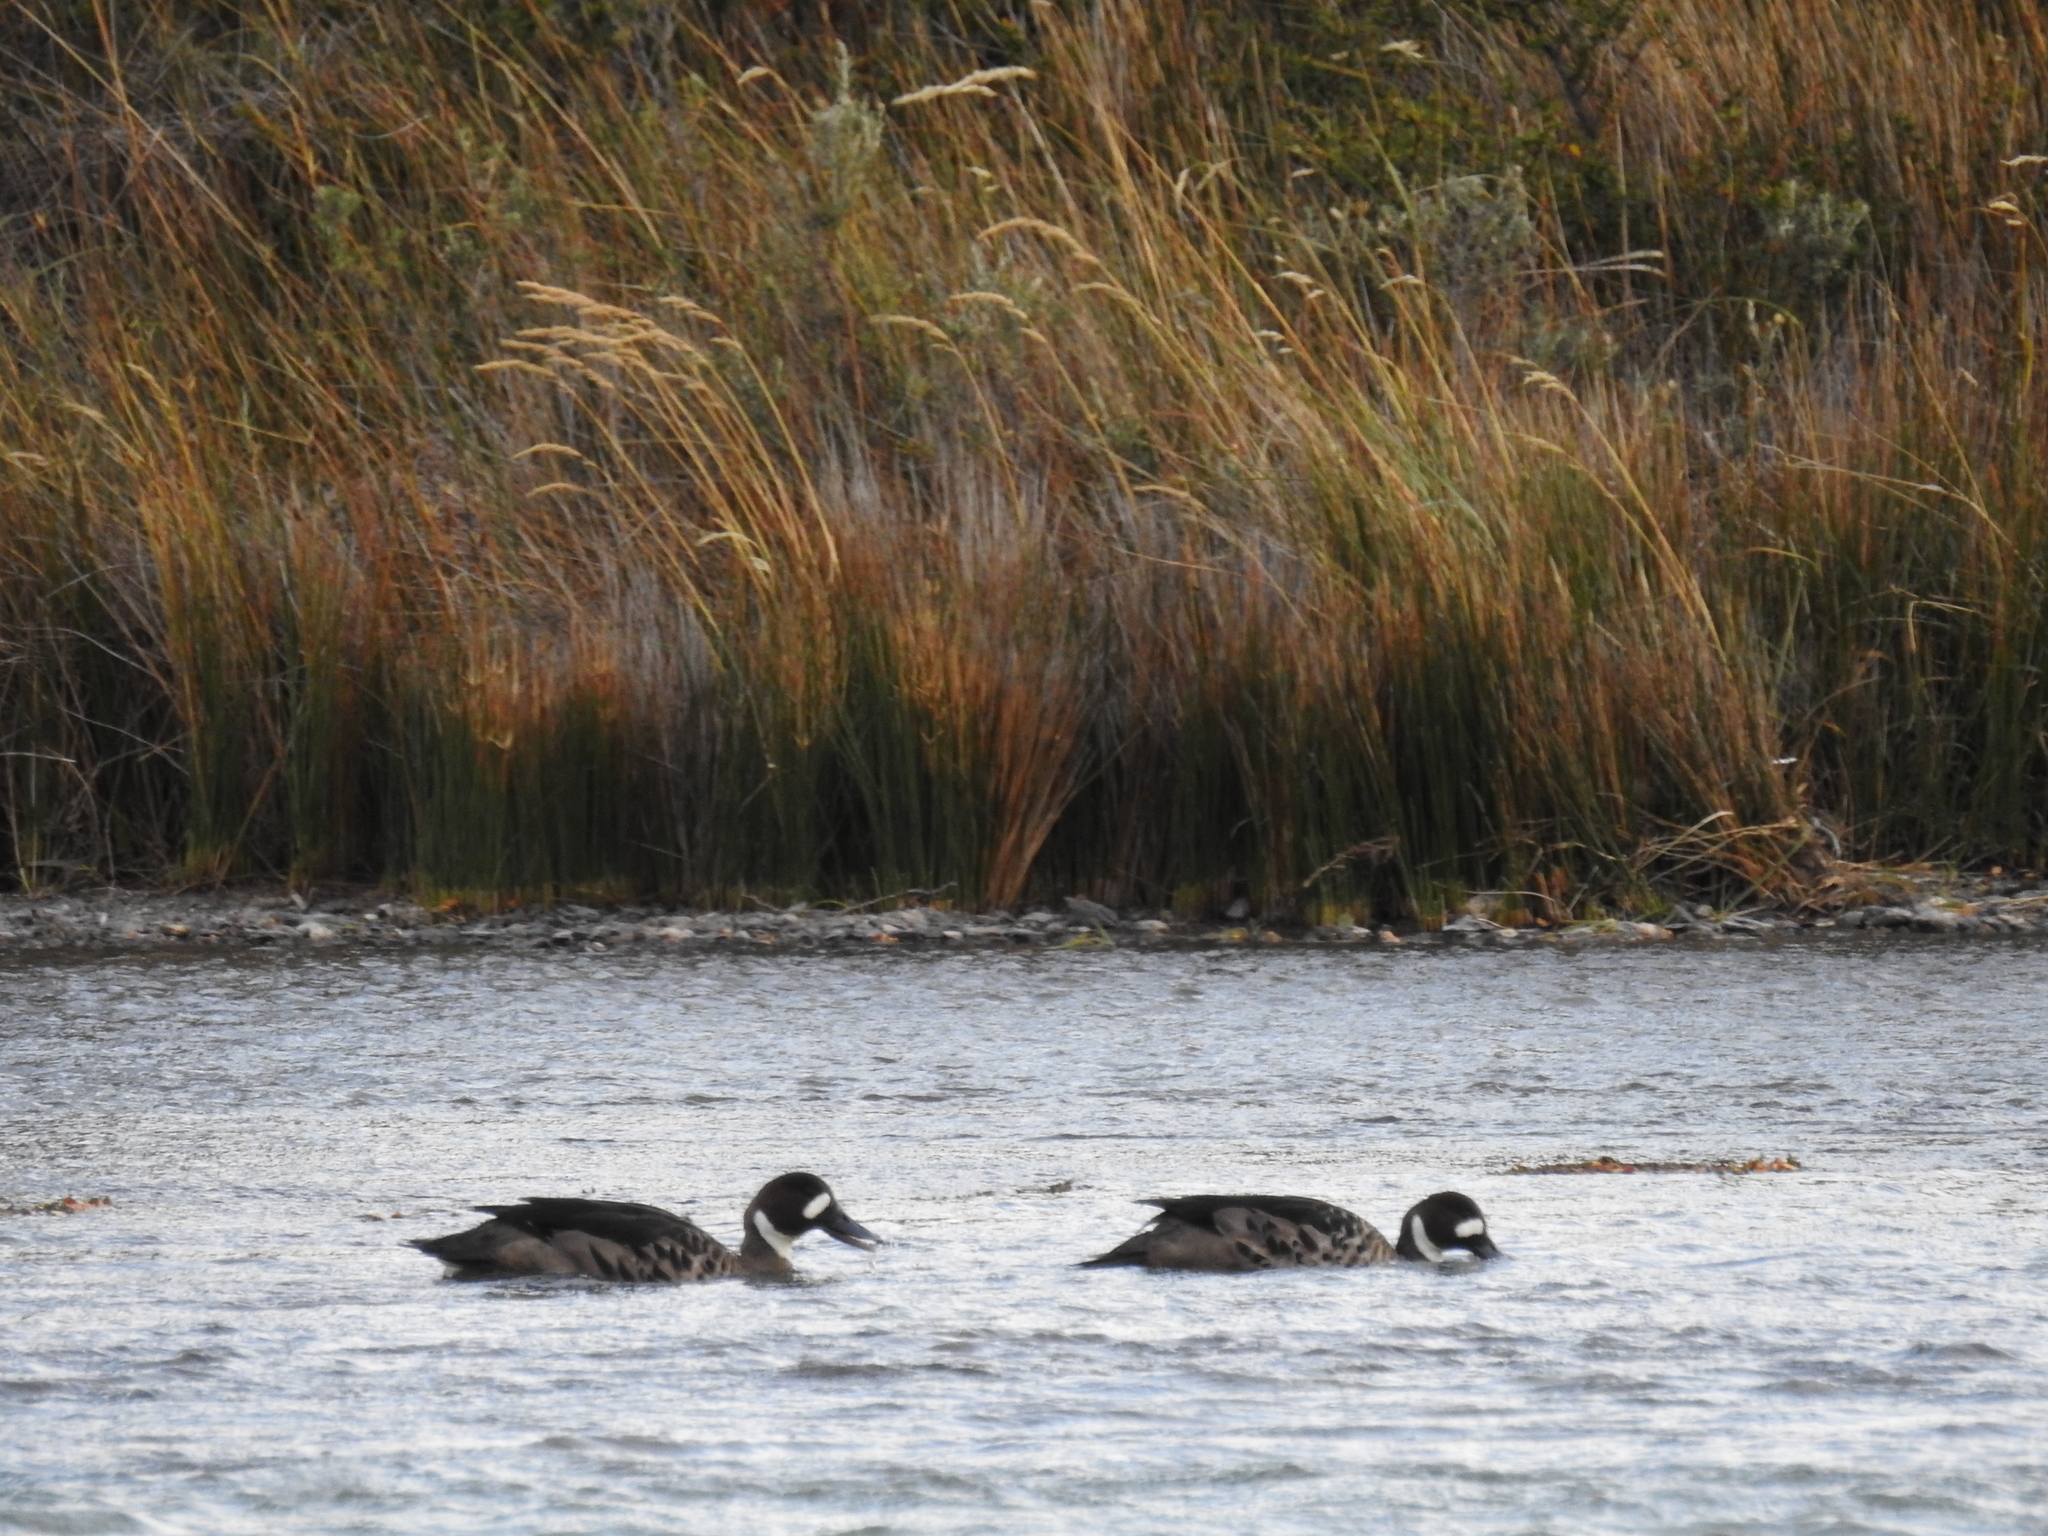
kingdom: Animalia
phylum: Chordata
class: Aves
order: Anseriformes
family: Anatidae
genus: Speculanas
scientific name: Speculanas specularis
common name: Bronze-winged duck
